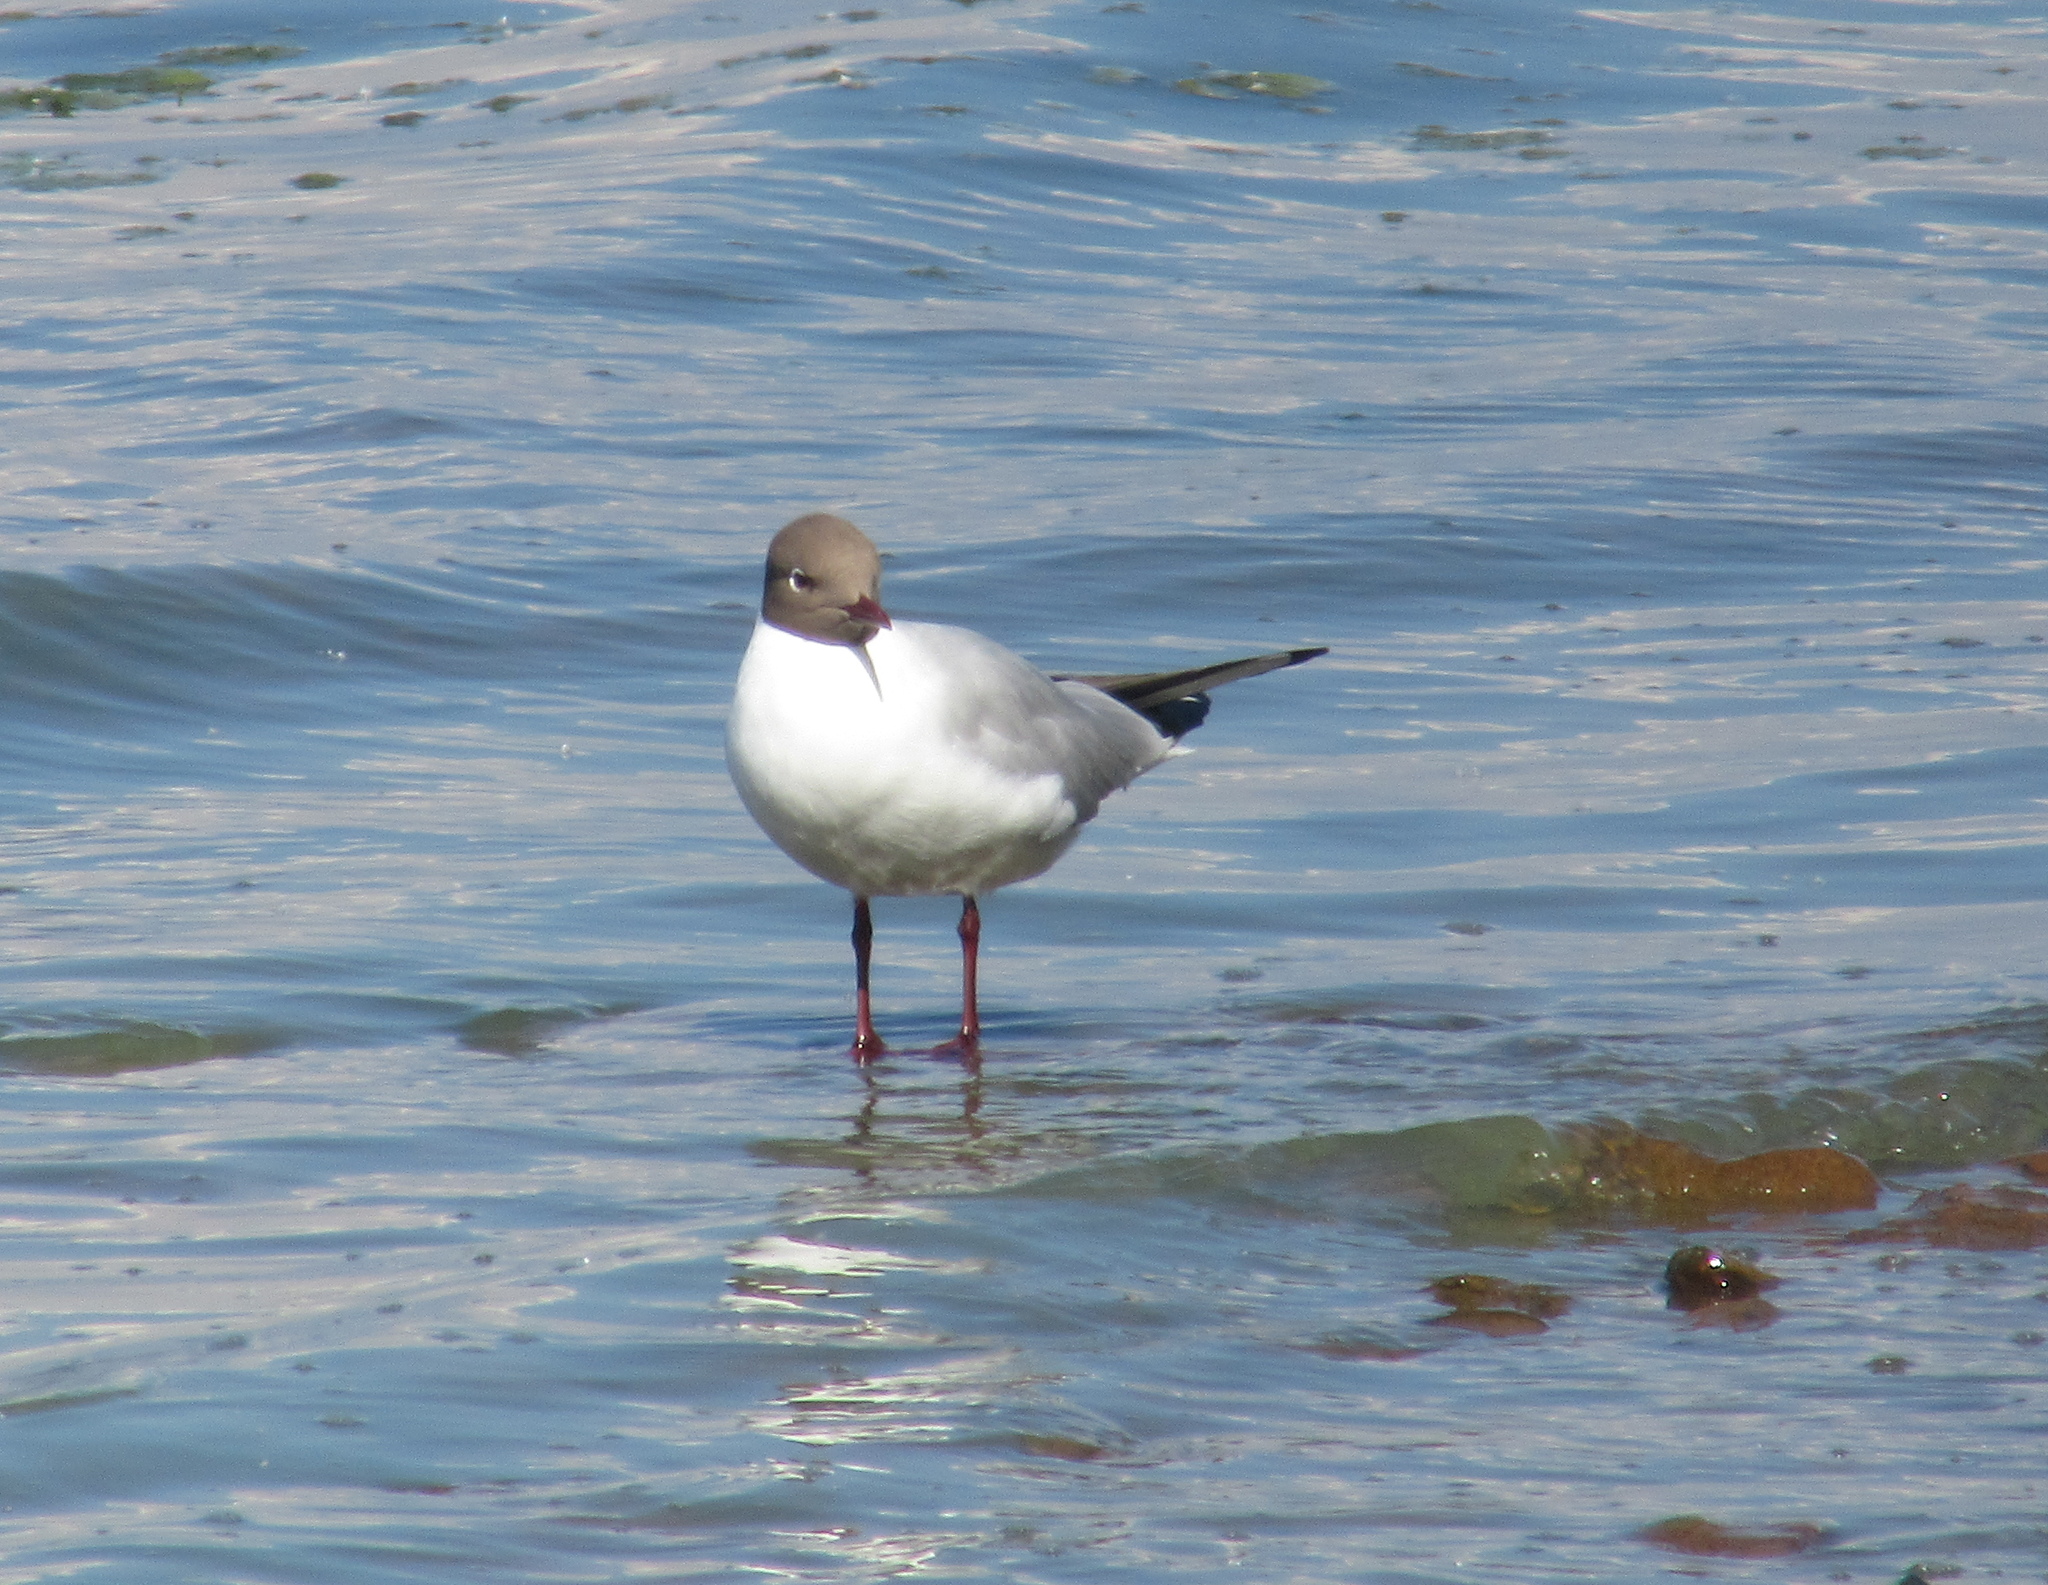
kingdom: Animalia
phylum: Chordata
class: Aves
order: Charadriiformes
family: Laridae
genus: Chroicocephalus
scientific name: Chroicocephalus ridibundus
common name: Black-headed gull
